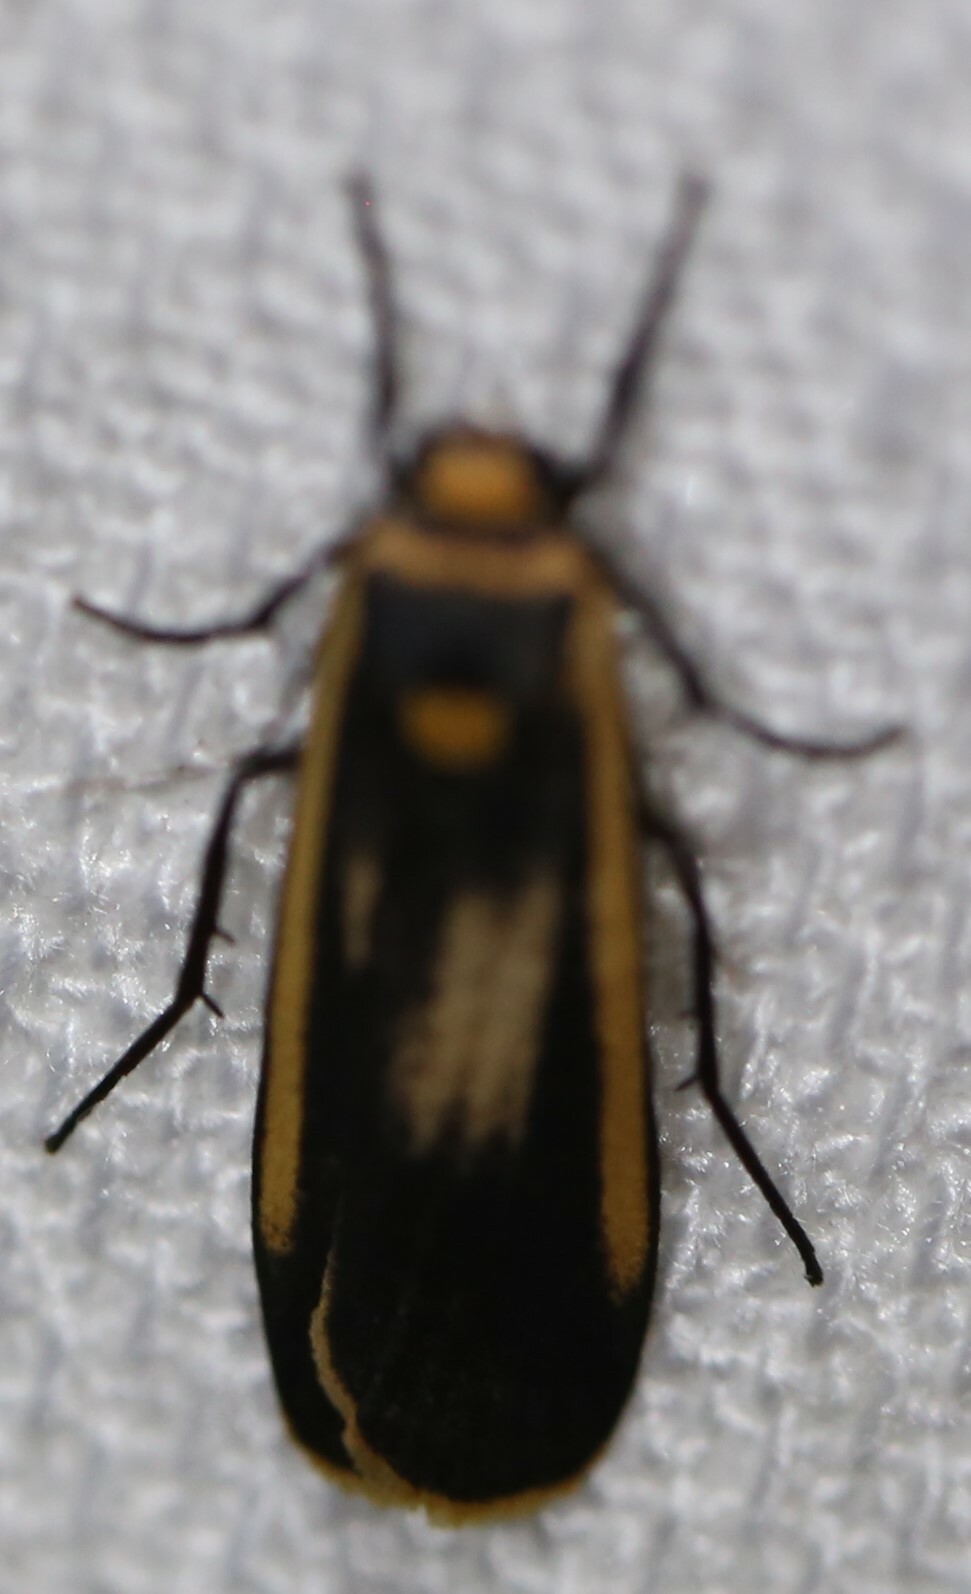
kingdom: Animalia
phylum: Arthropoda
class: Insecta
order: Lepidoptera
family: Erebidae
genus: Brunia
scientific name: Brunia replana
